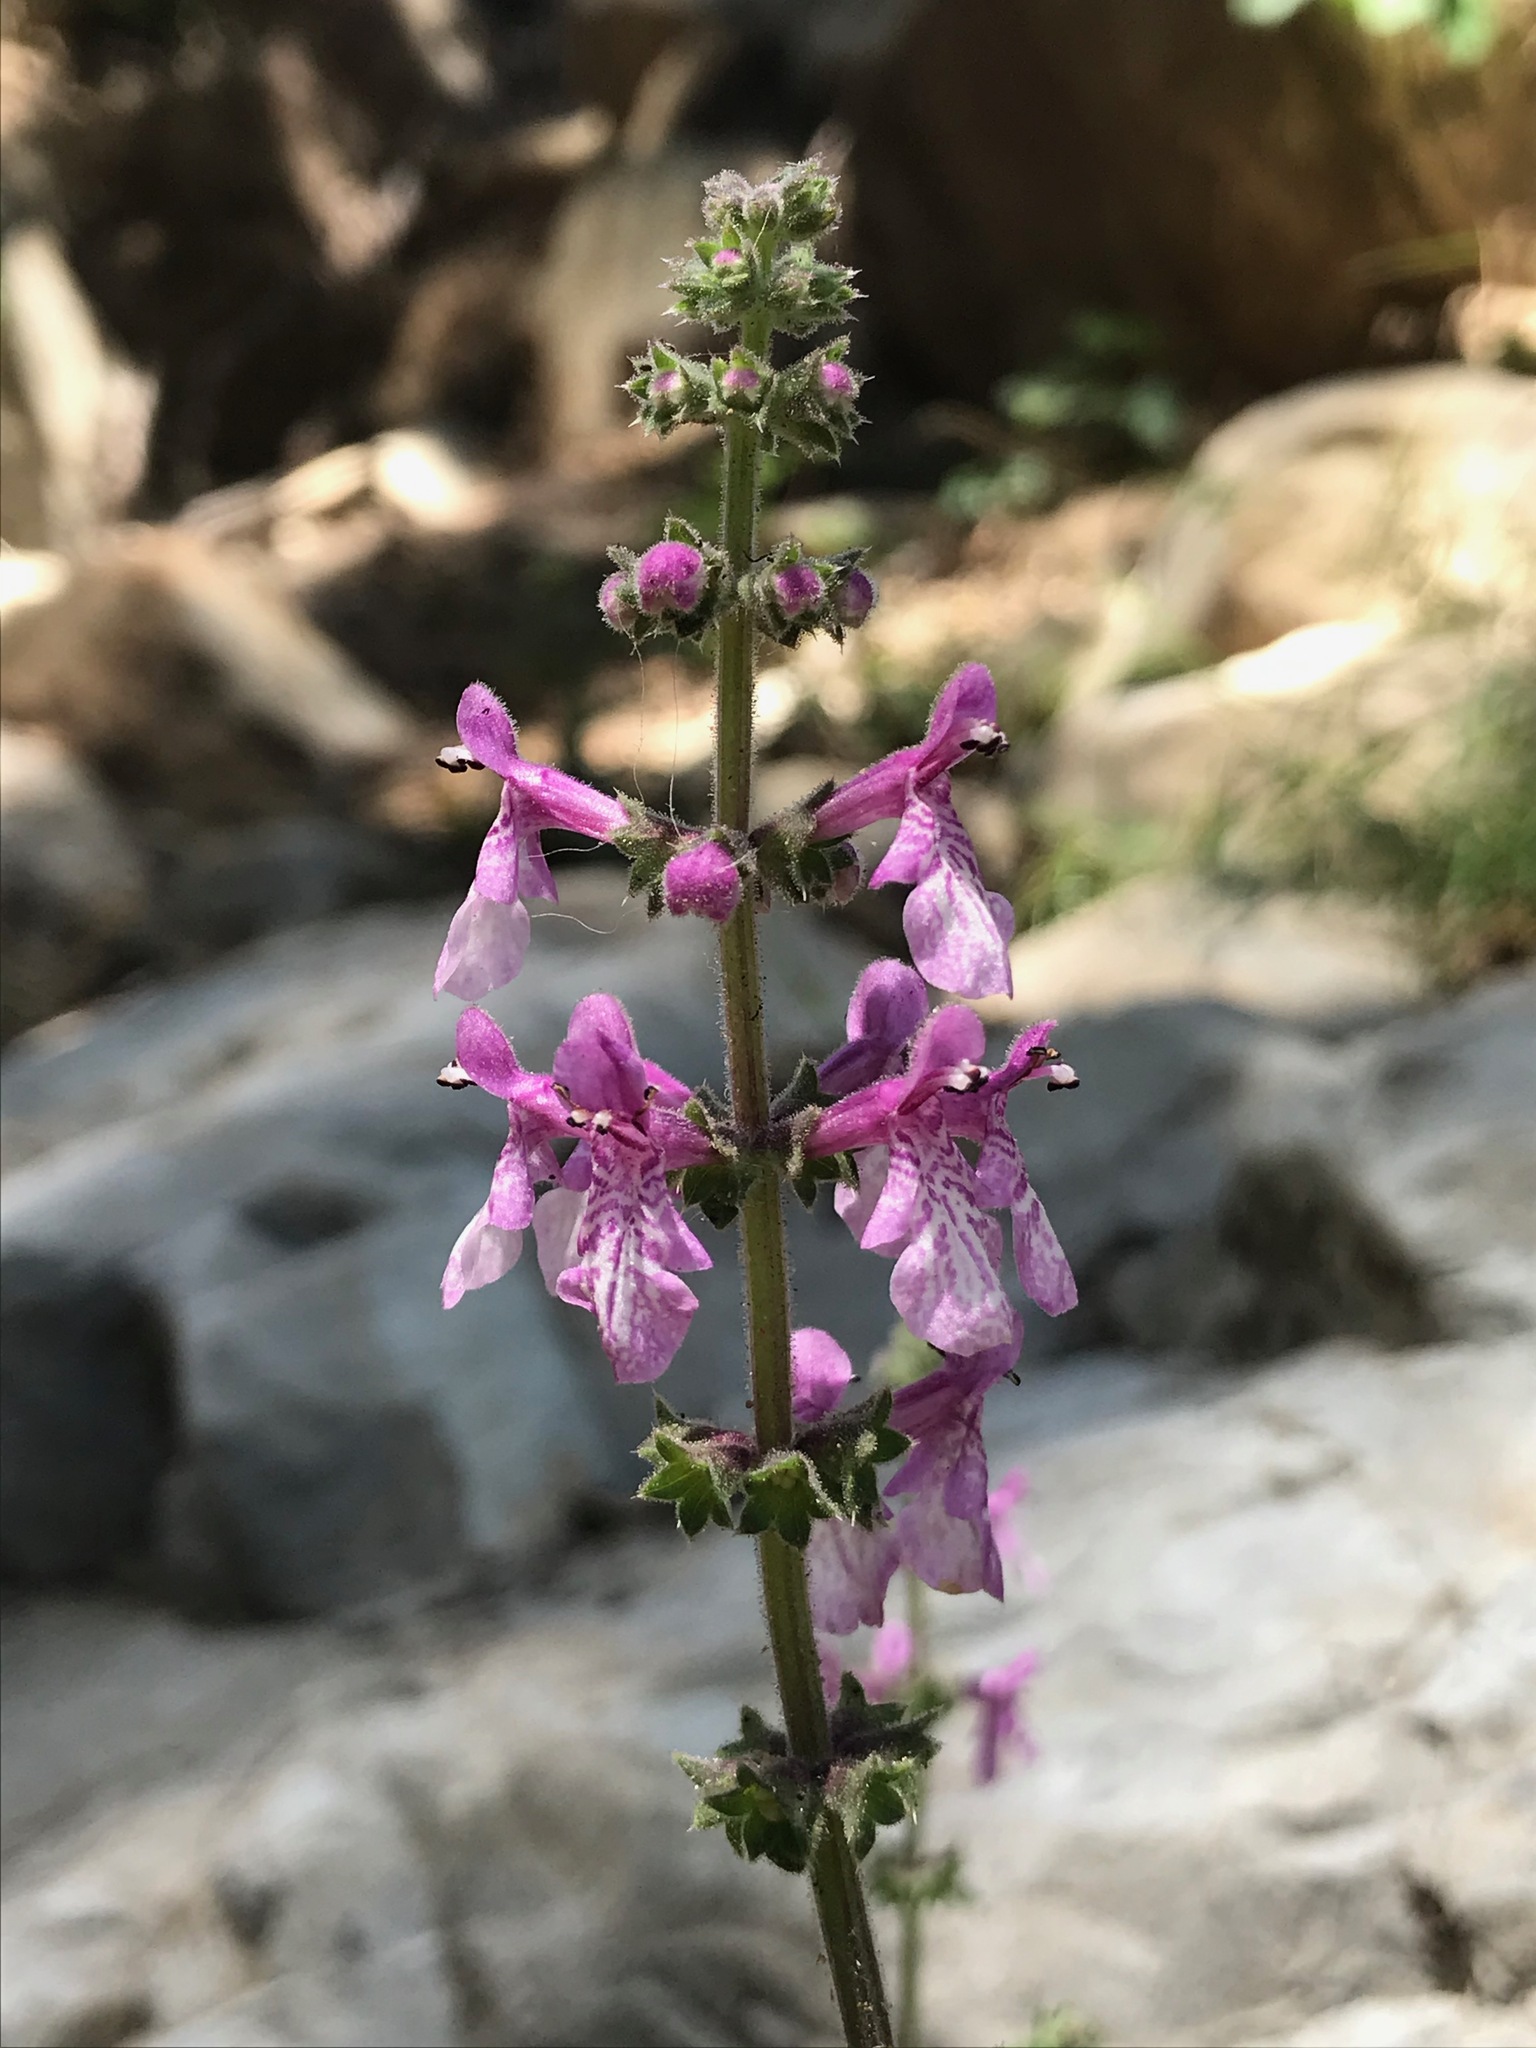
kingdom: Plantae
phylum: Tracheophyta
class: Magnoliopsida
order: Lamiales
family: Lamiaceae
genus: Stachys
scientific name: Stachys bullata
